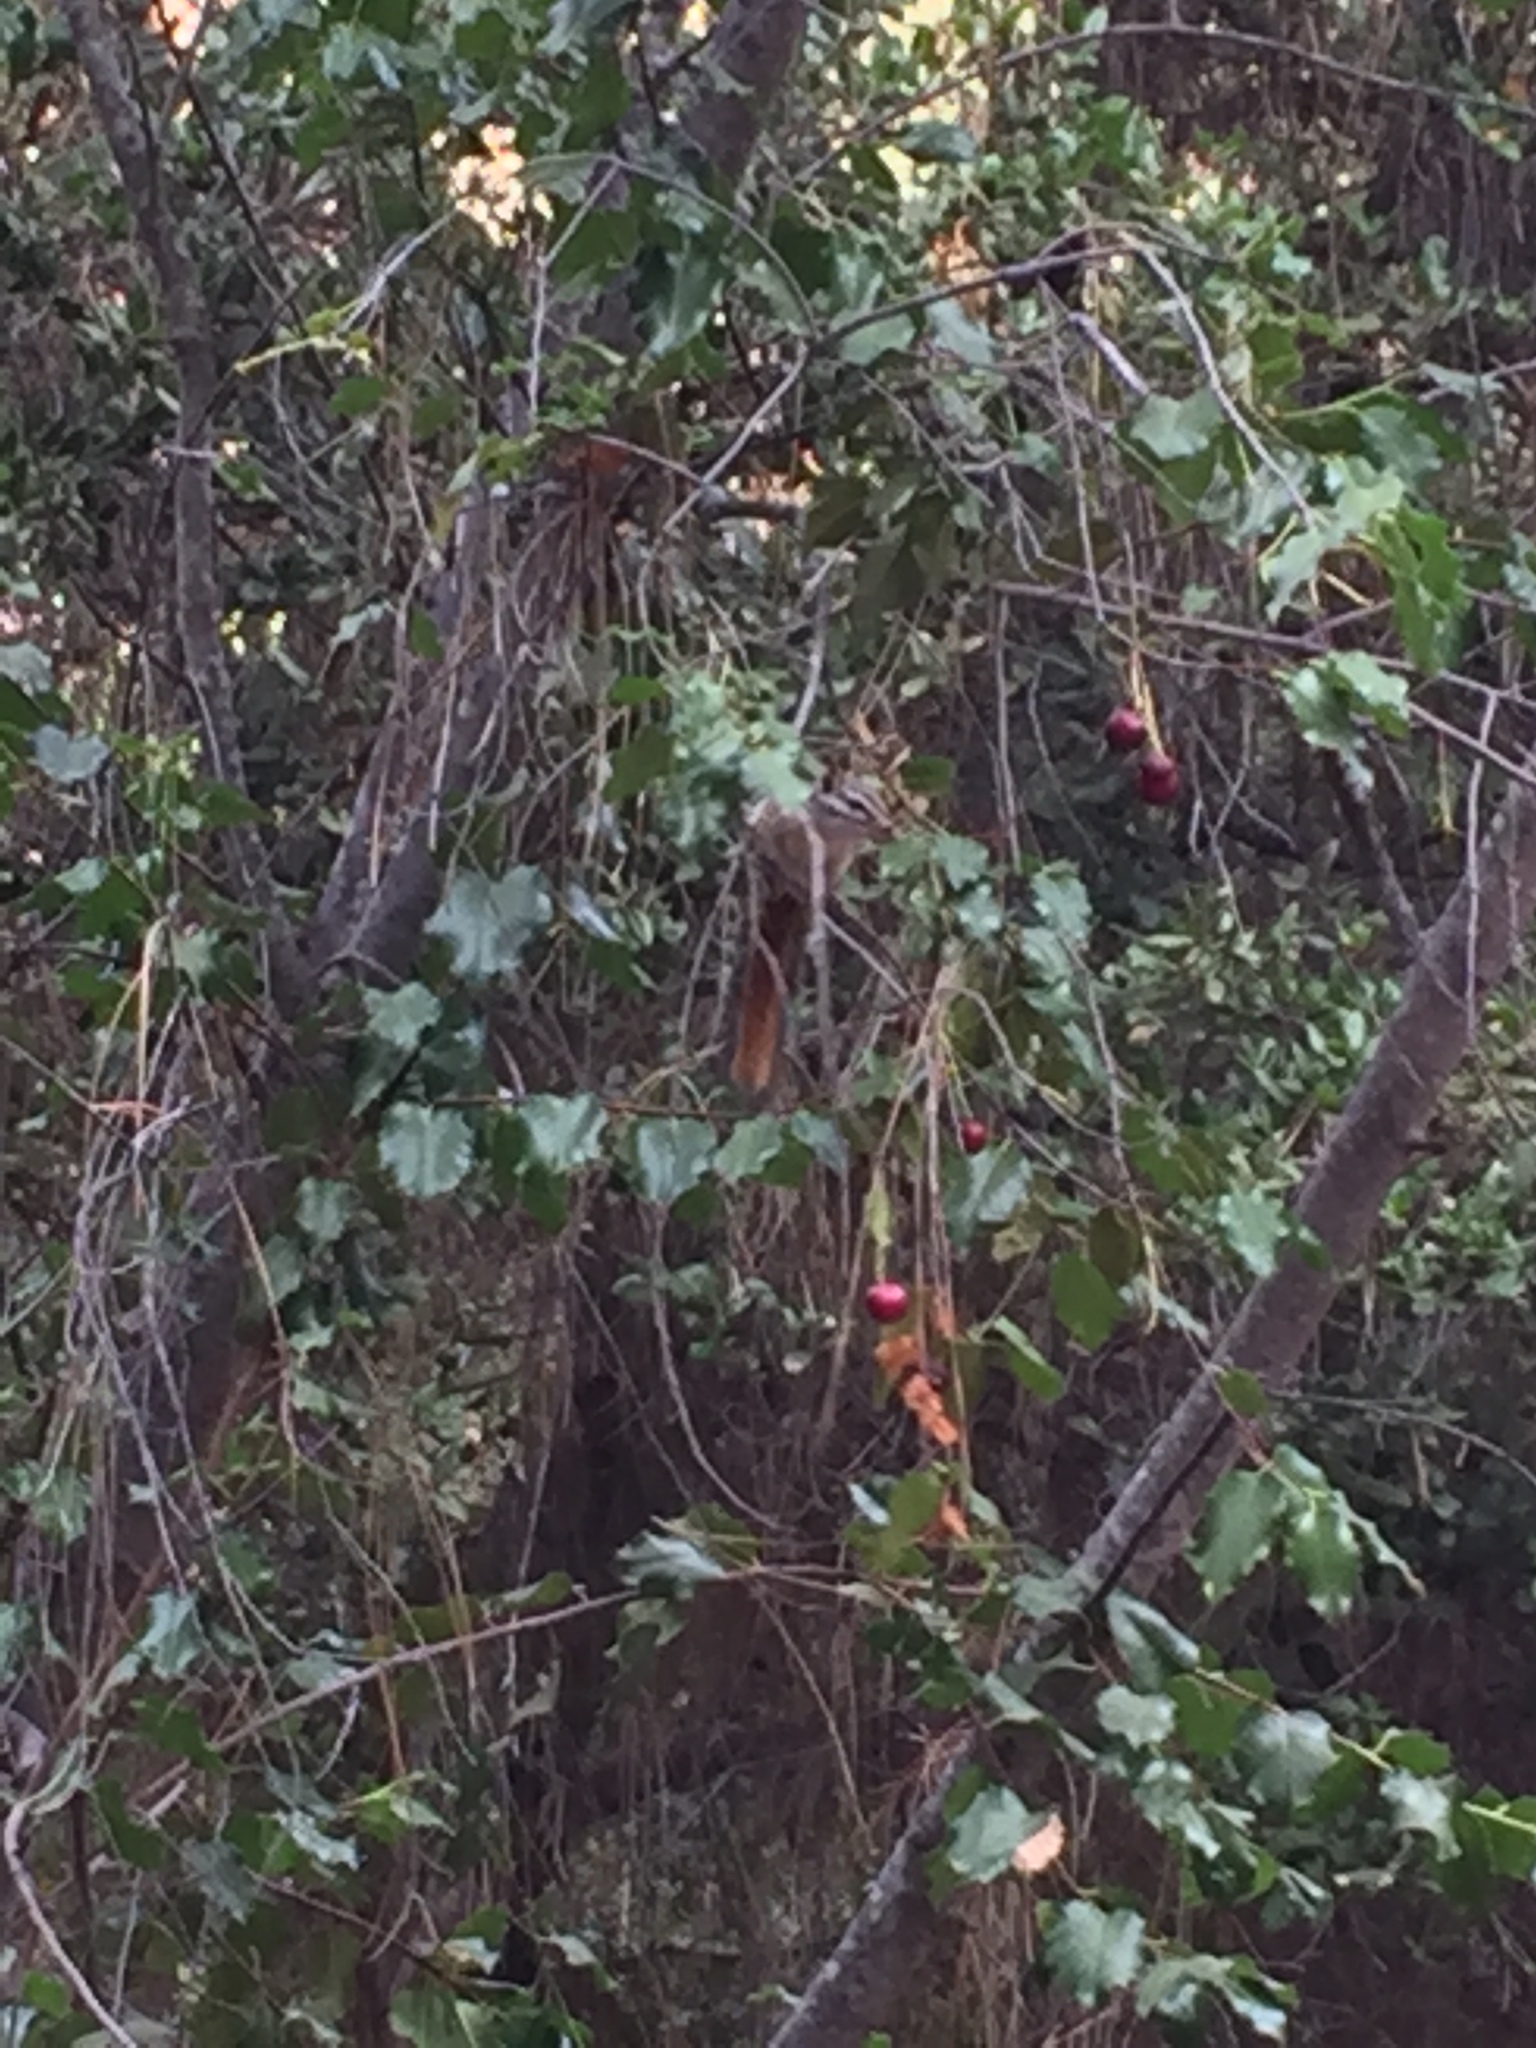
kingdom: Animalia
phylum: Chordata
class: Mammalia
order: Rodentia
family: Sciuridae
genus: Tamias
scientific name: Tamias merriami
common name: Merriam's chipmunk
